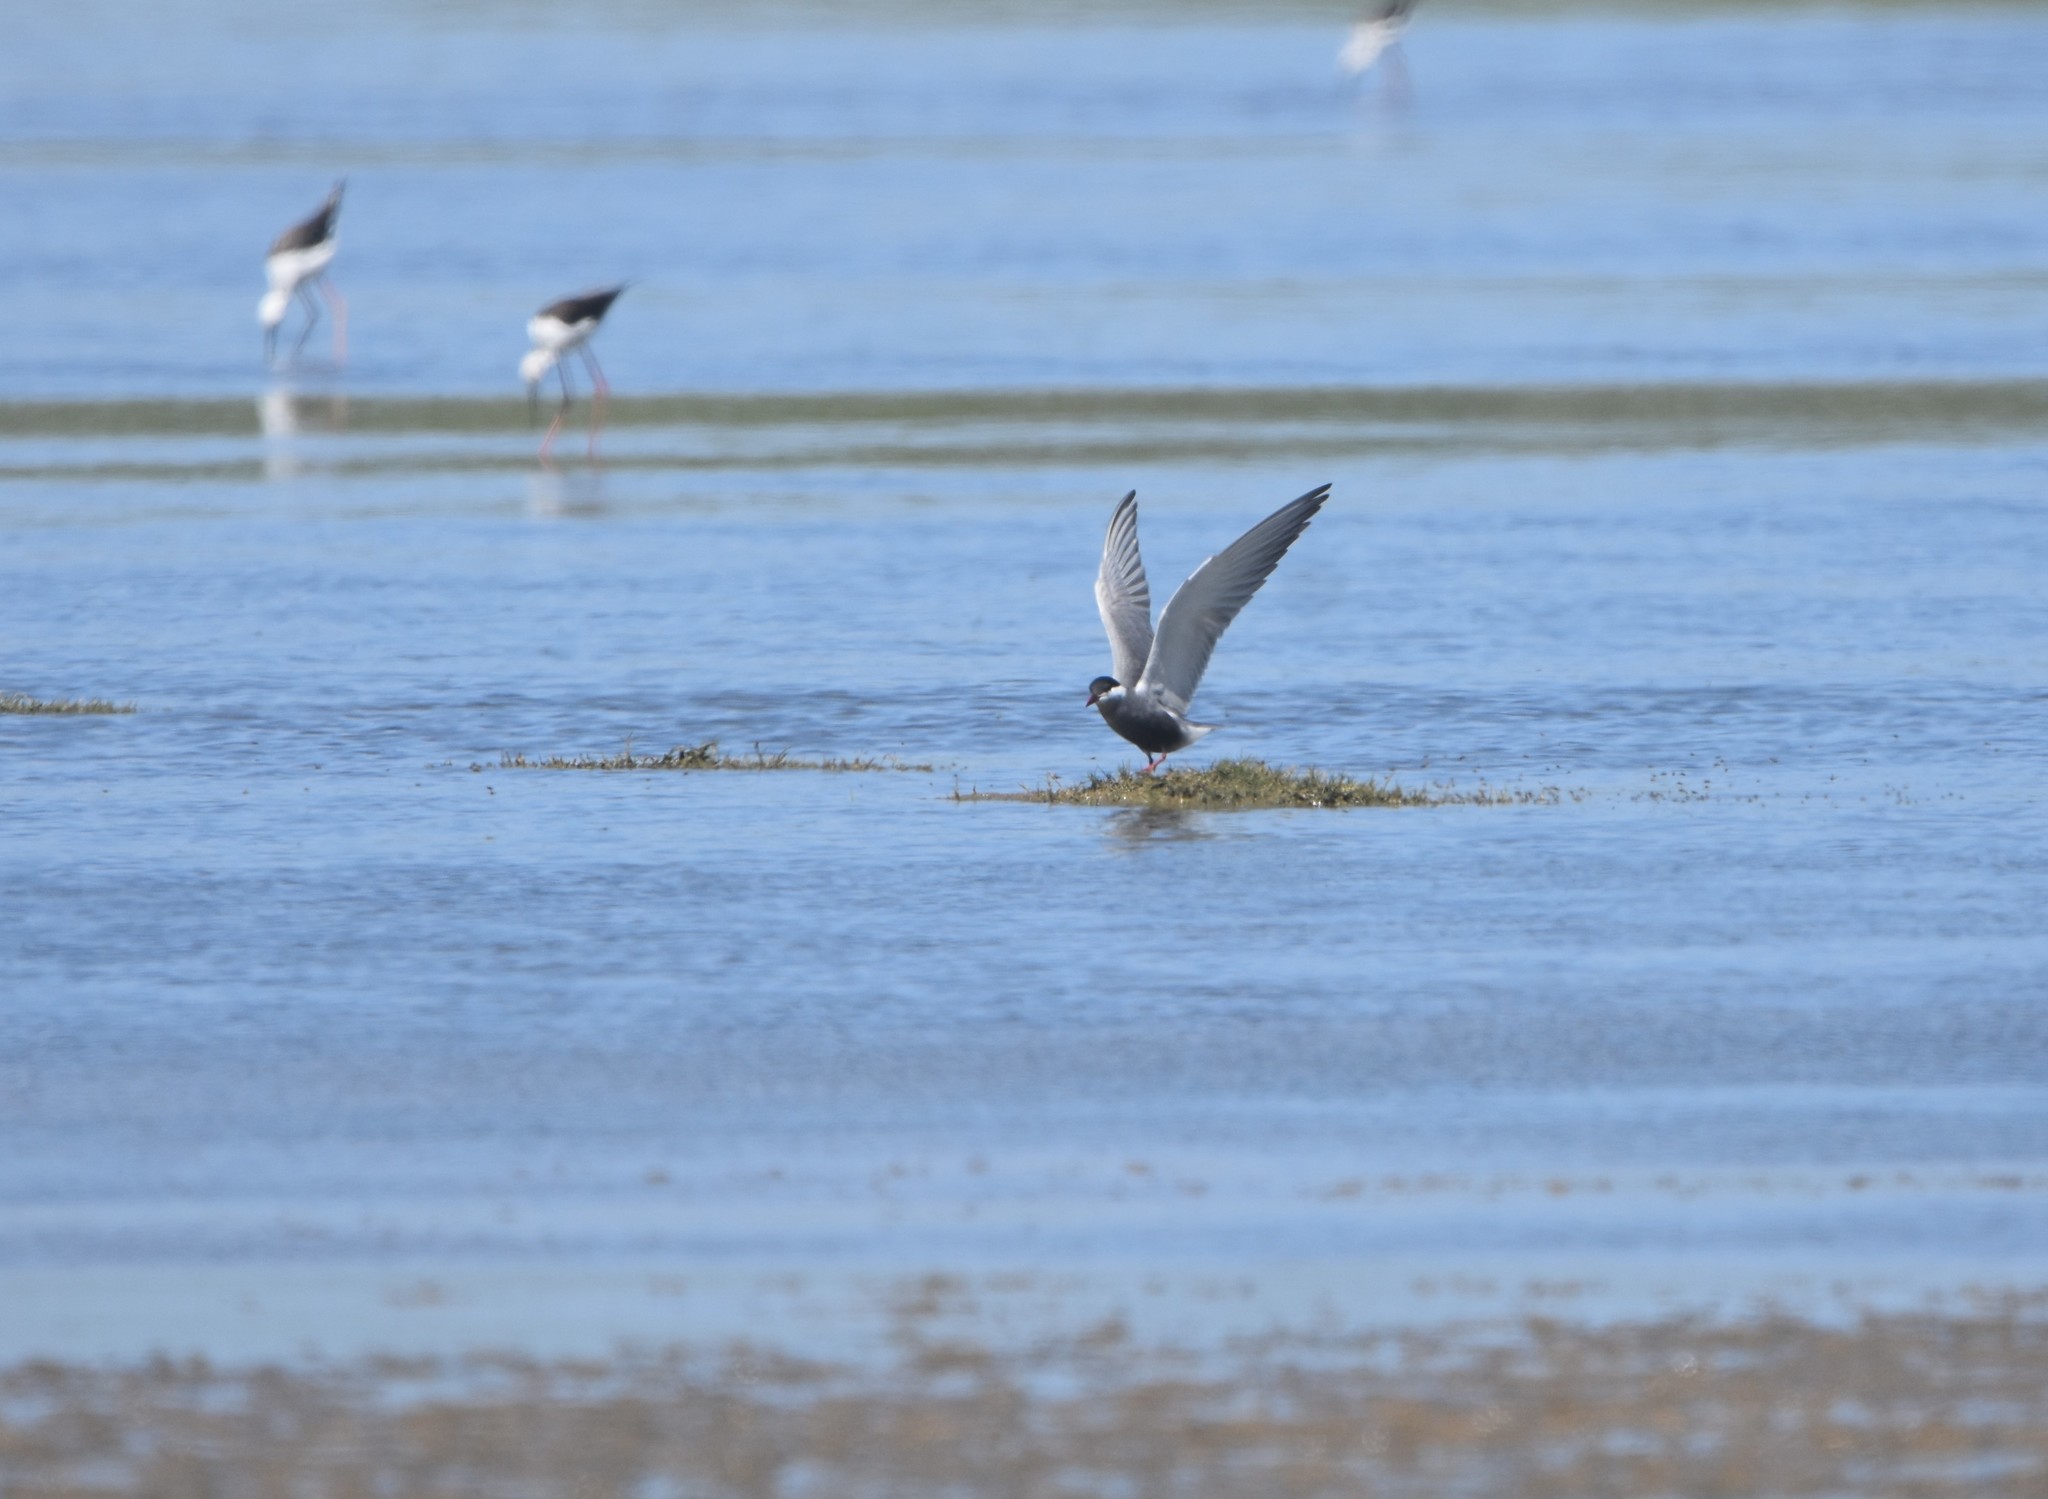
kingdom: Animalia
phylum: Chordata
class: Aves
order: Charadriiformes
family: Laridae
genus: Chlidonias
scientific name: Chlidonias hybrida
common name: Whiskered tern
